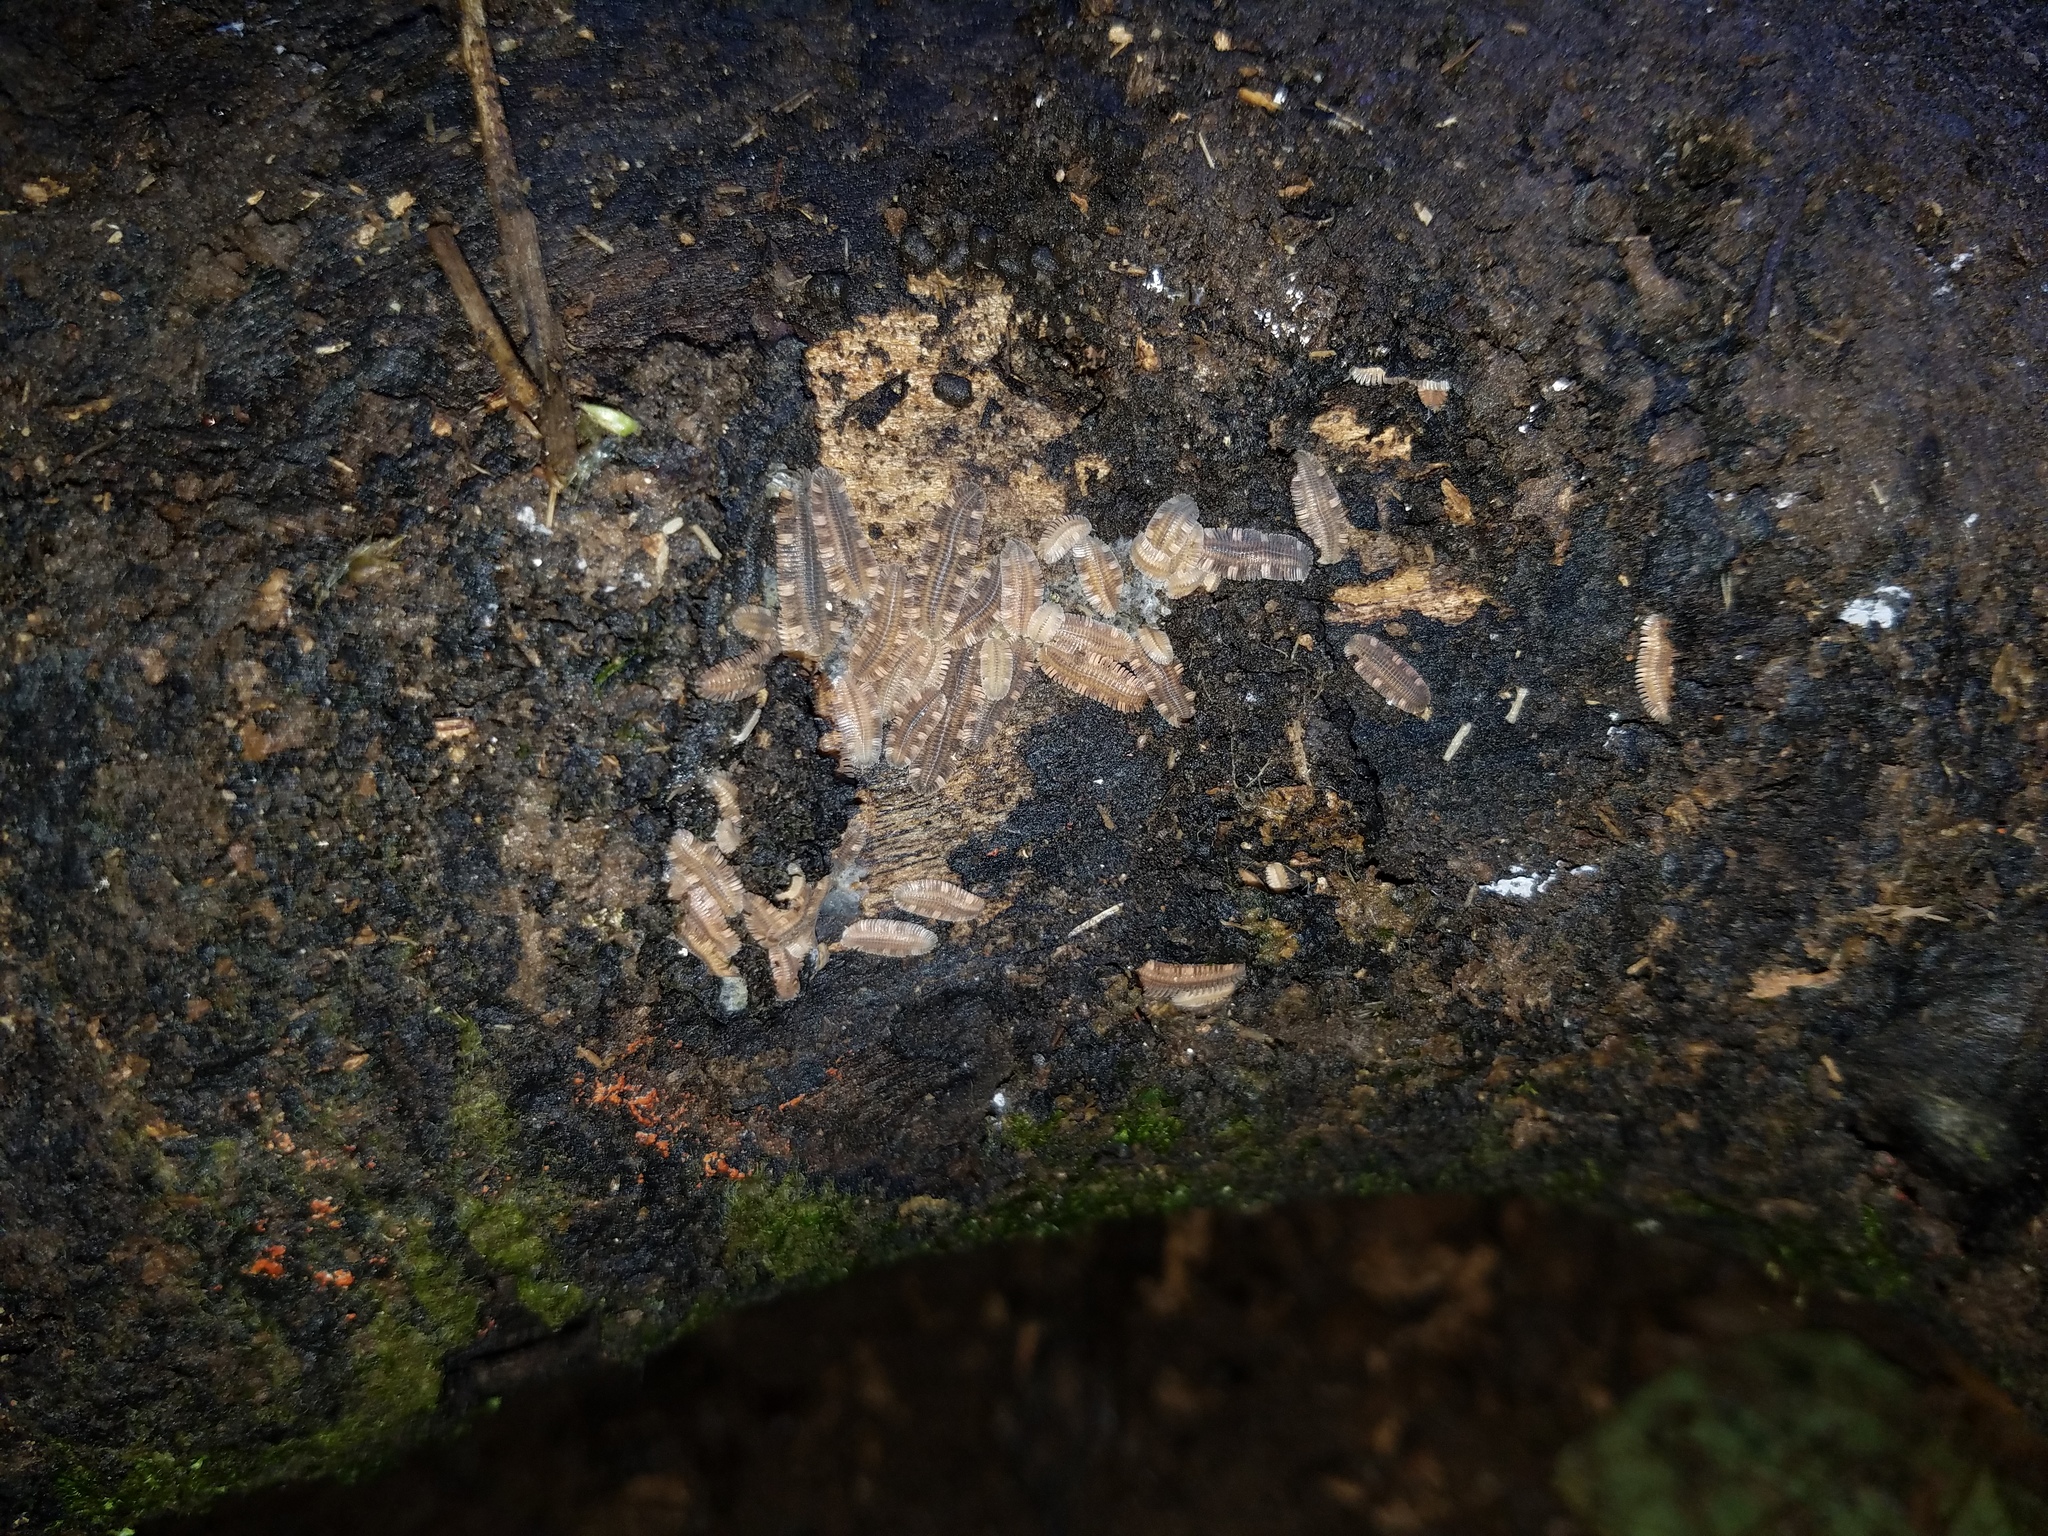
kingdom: Animalia
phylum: Arthropoda
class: Diplopoda
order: Platydesmida
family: Platydesmidae
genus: Platydesmus
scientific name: Platydesmus mexicanus
